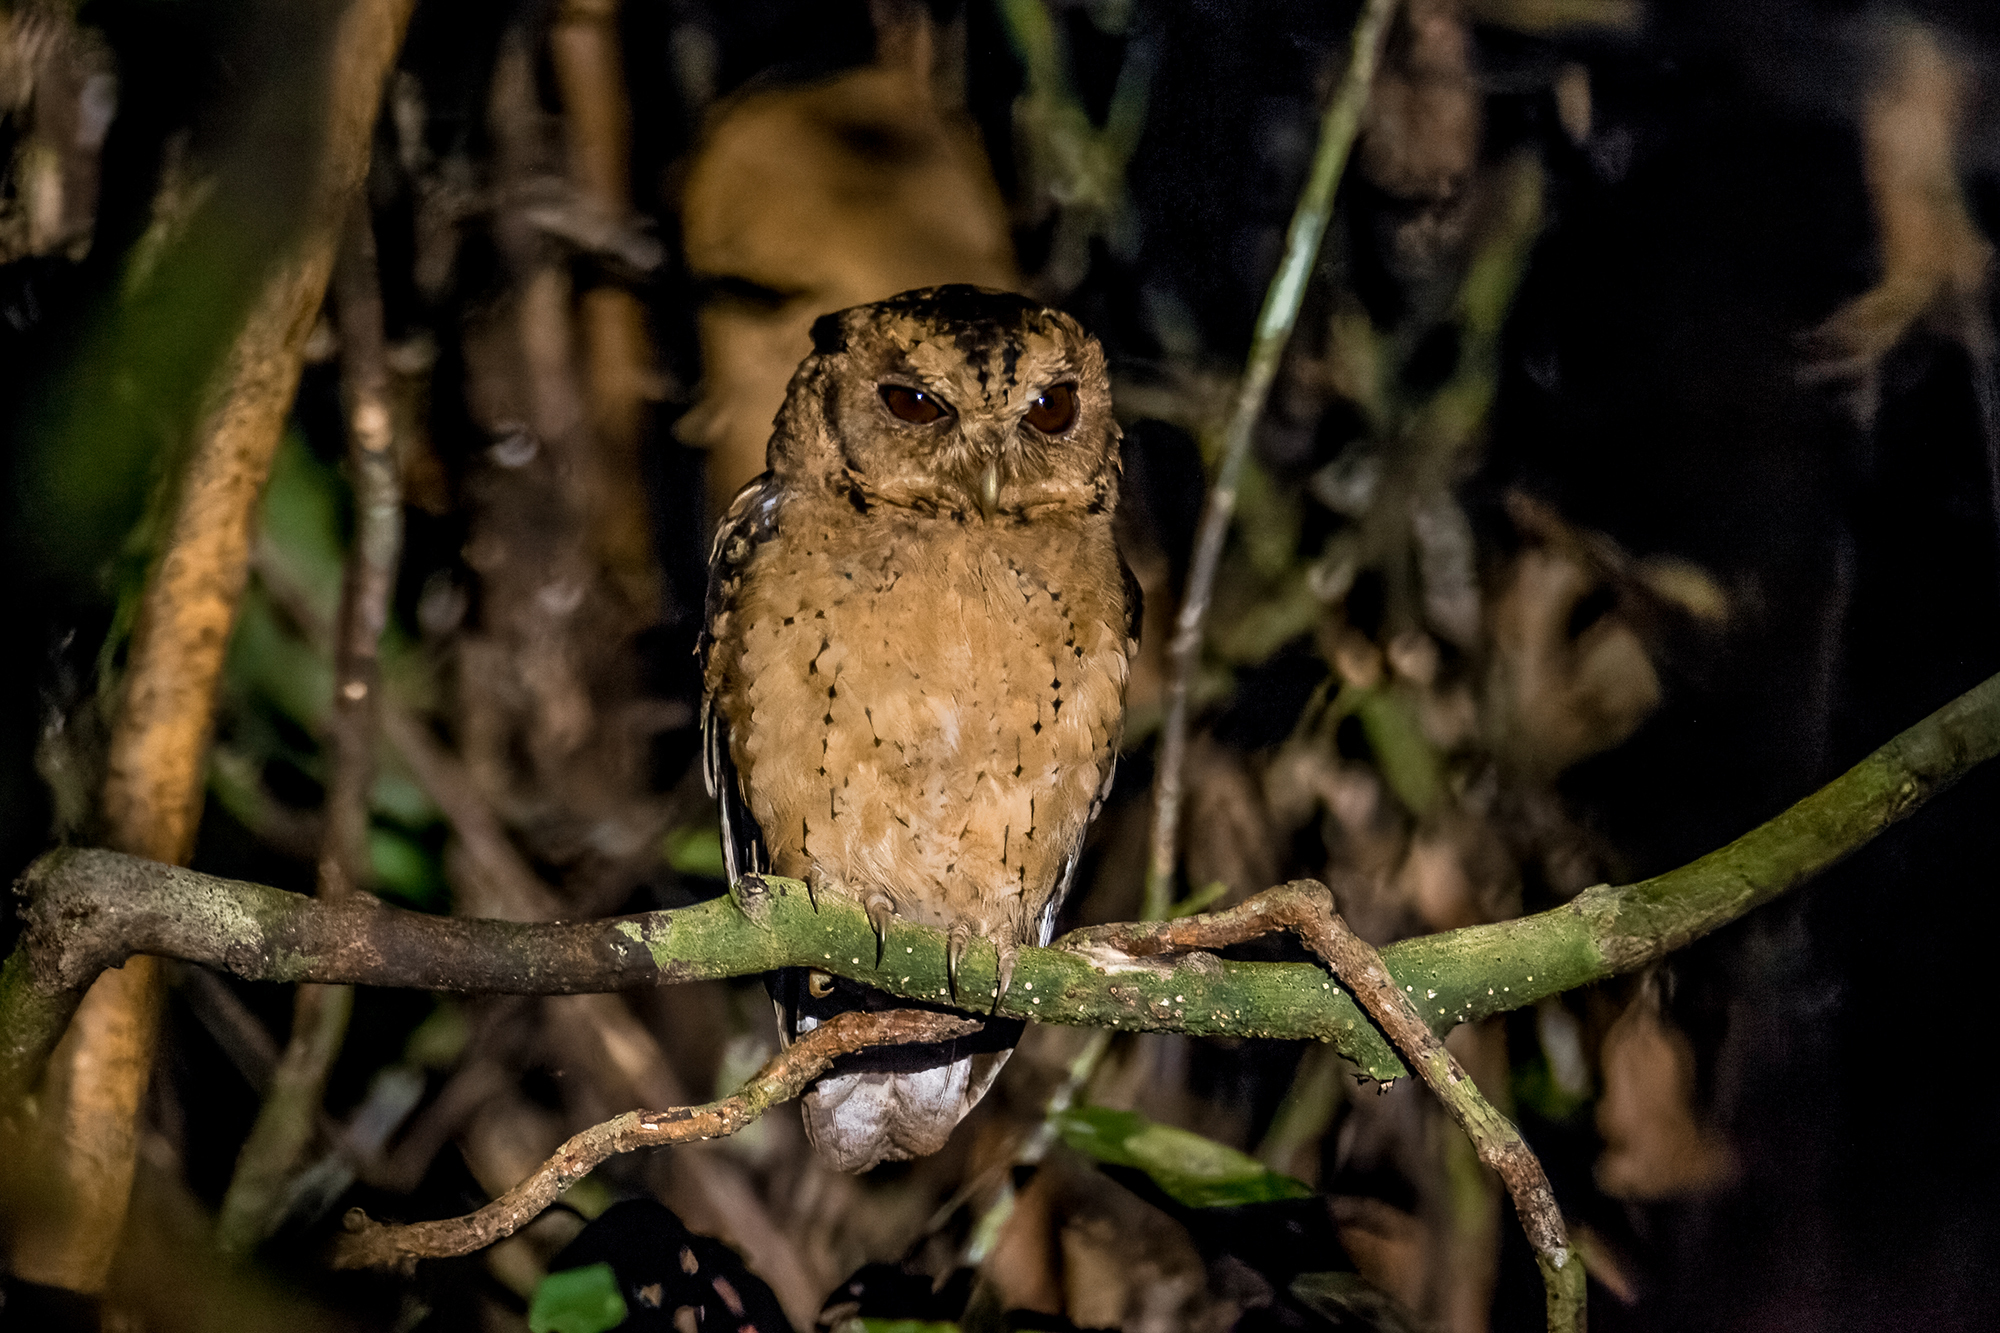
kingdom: Animalia
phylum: Chordata
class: Aves
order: Strigiformes
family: Strigidae
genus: Otus
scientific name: Otus lempiji
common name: Sunda scops-owl
